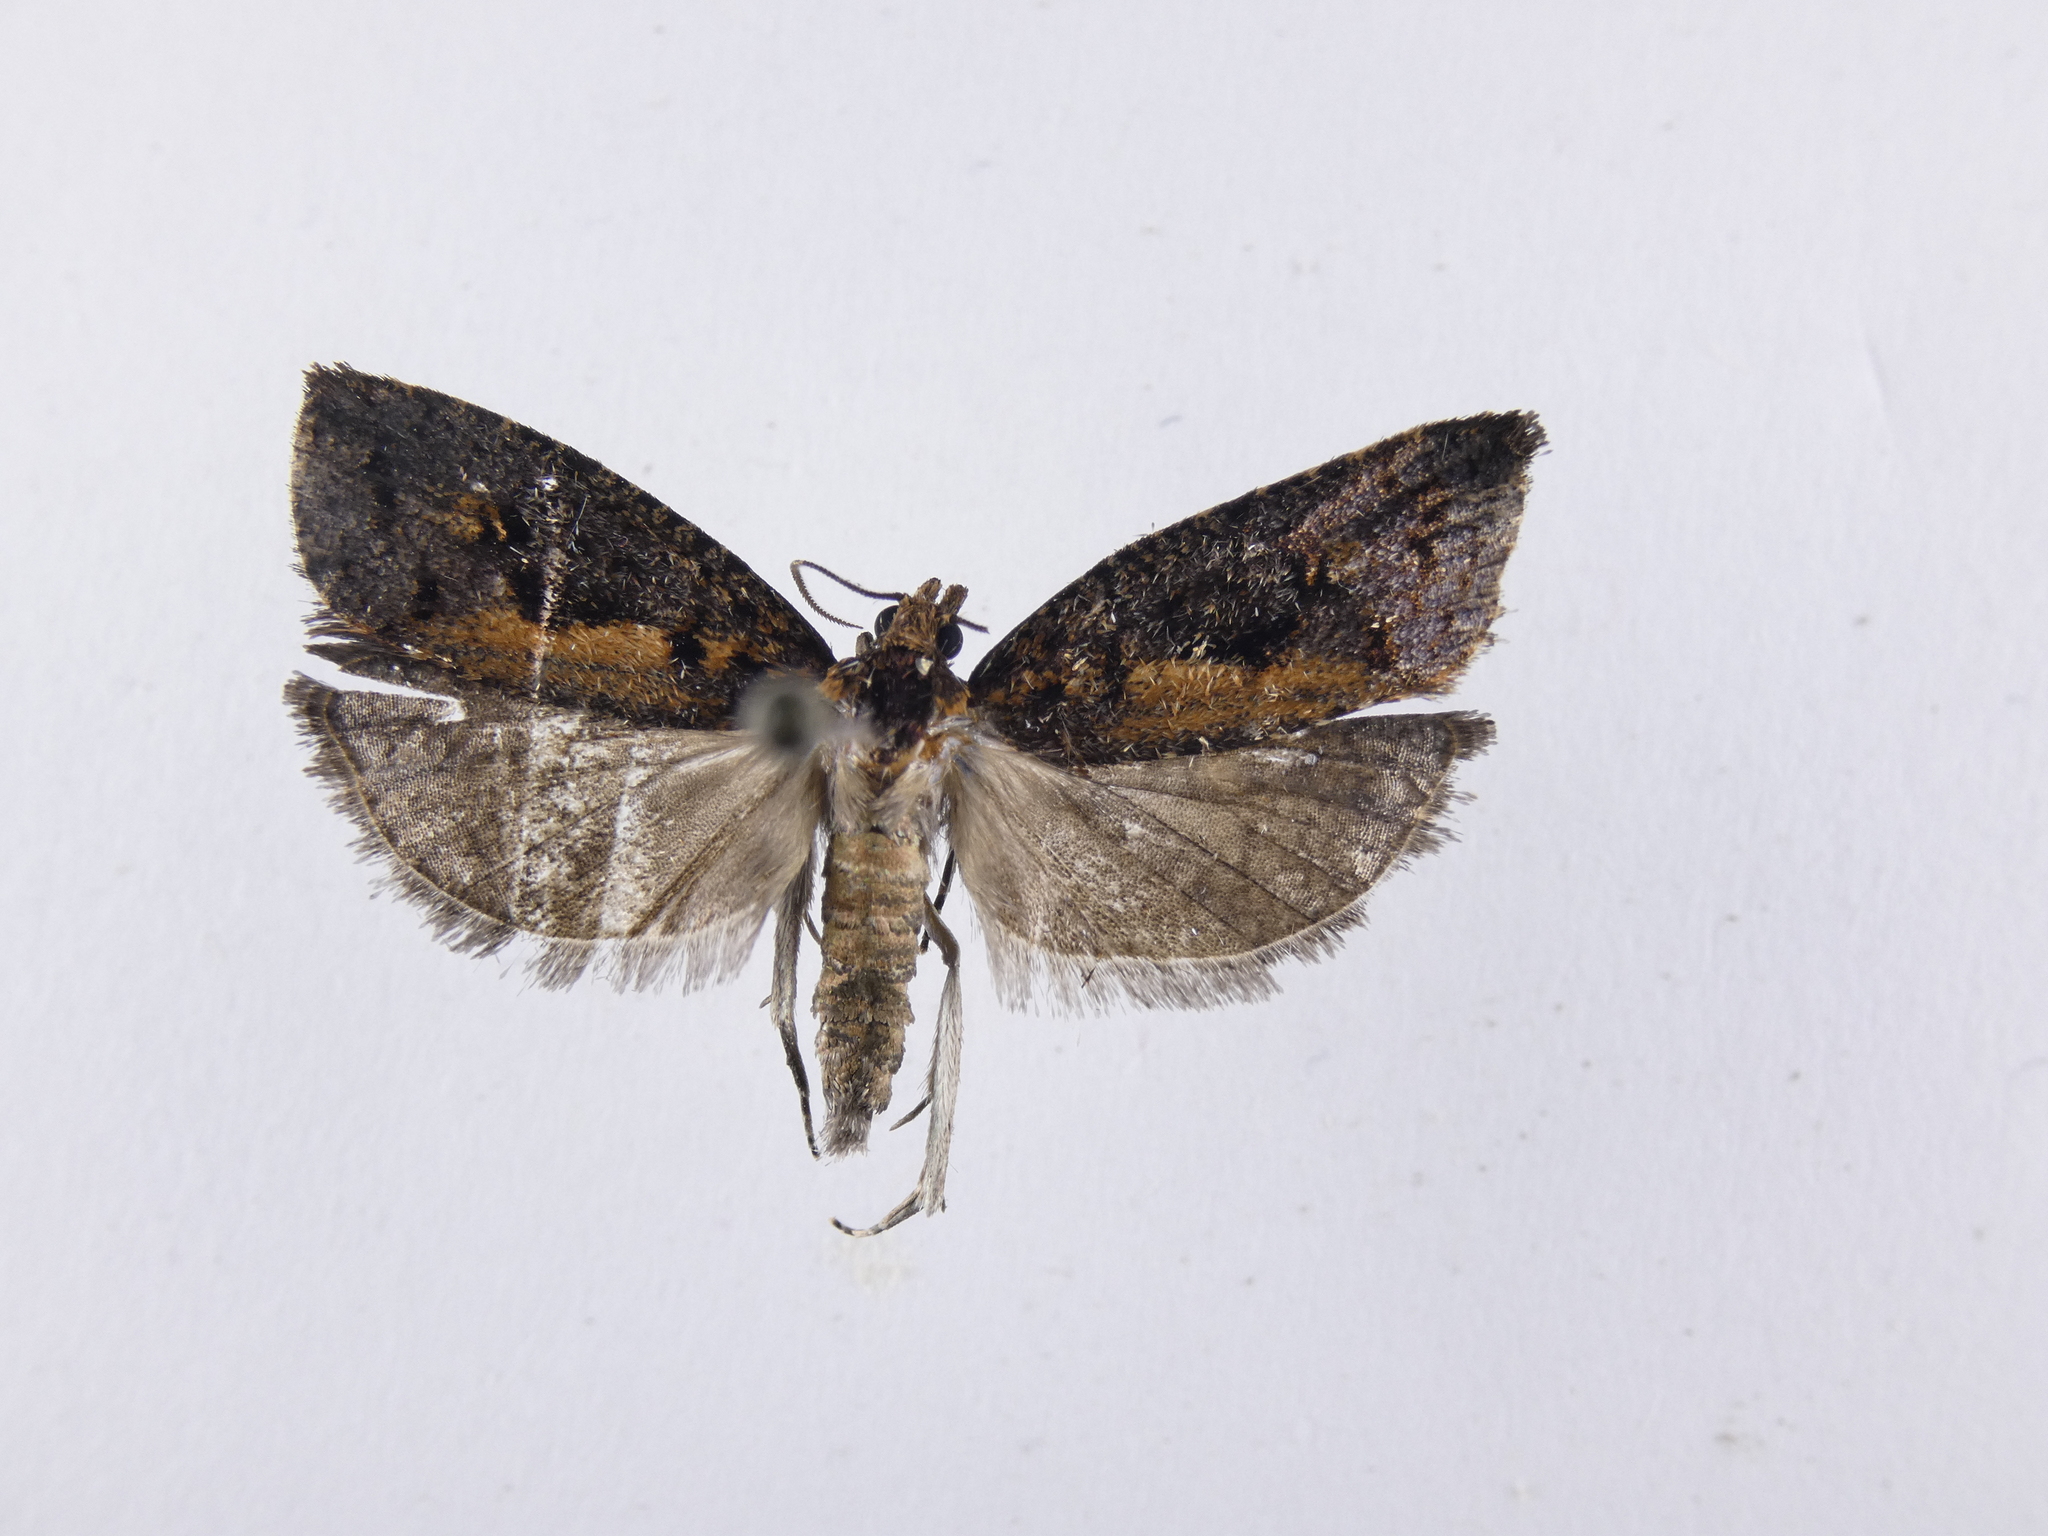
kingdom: Animalia
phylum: Arthropoda
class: Insecta
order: Lepidoptera
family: Tortricidae
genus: Cryptaspasma
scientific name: Cryptaspasma querula
